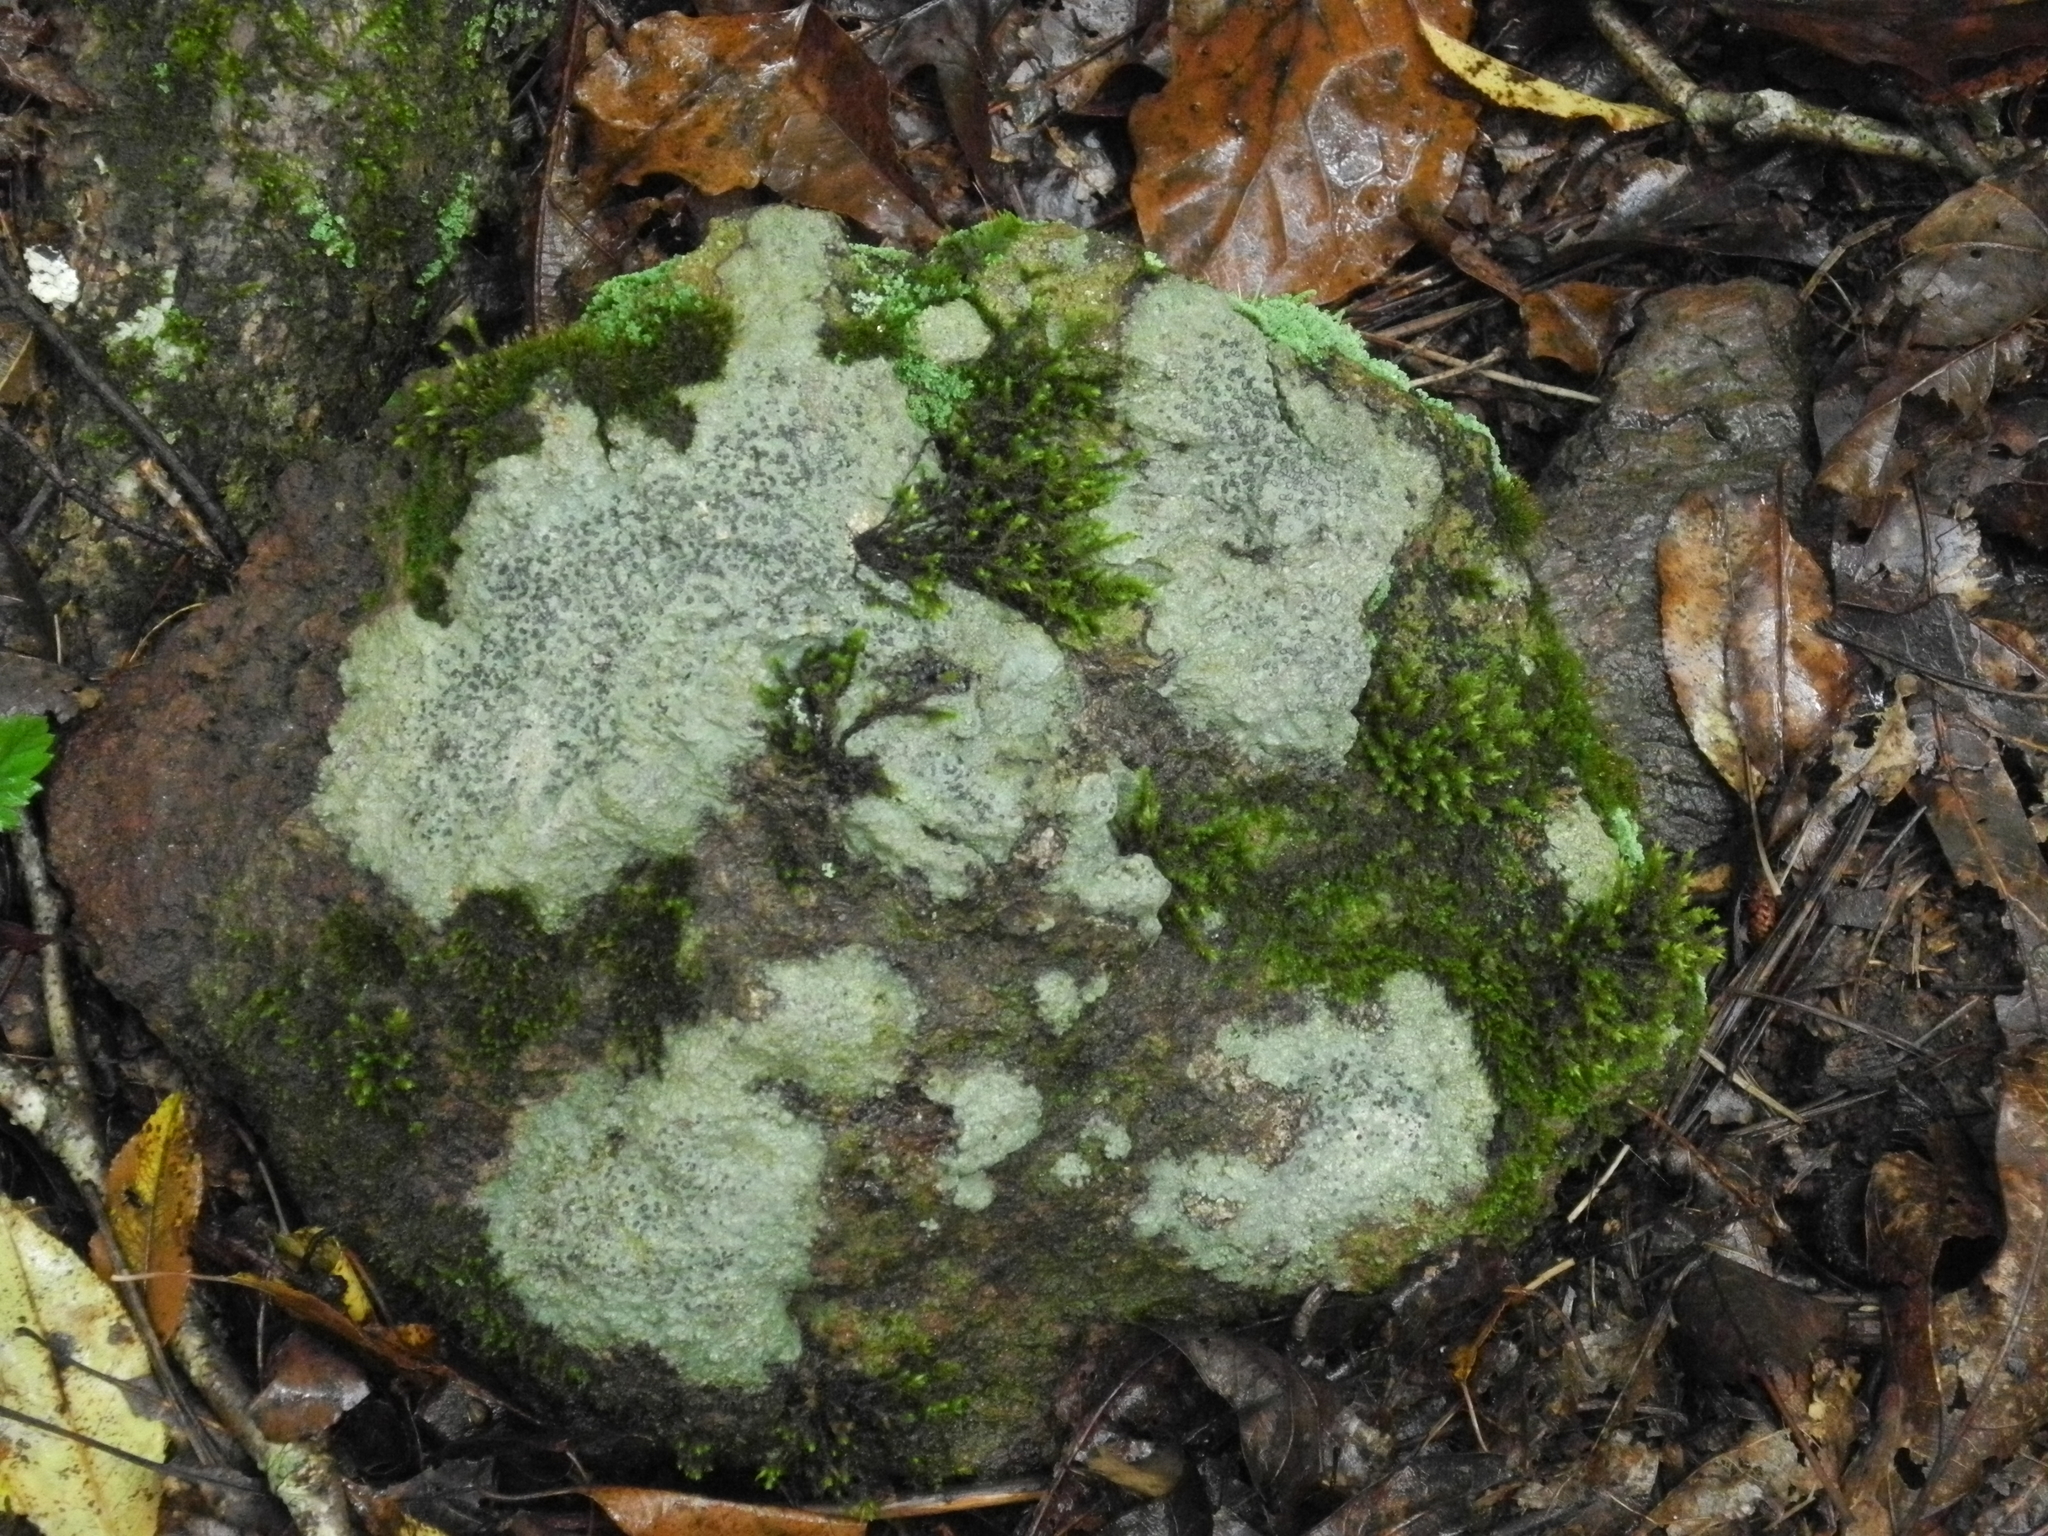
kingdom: Fungi
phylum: Ascomycota
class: Lecanoromycetes
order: Lecideales
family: Lecideaceae
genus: Porpidia
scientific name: Porpidia albocaerulescens
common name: Smokey-eyed boulder lichen
